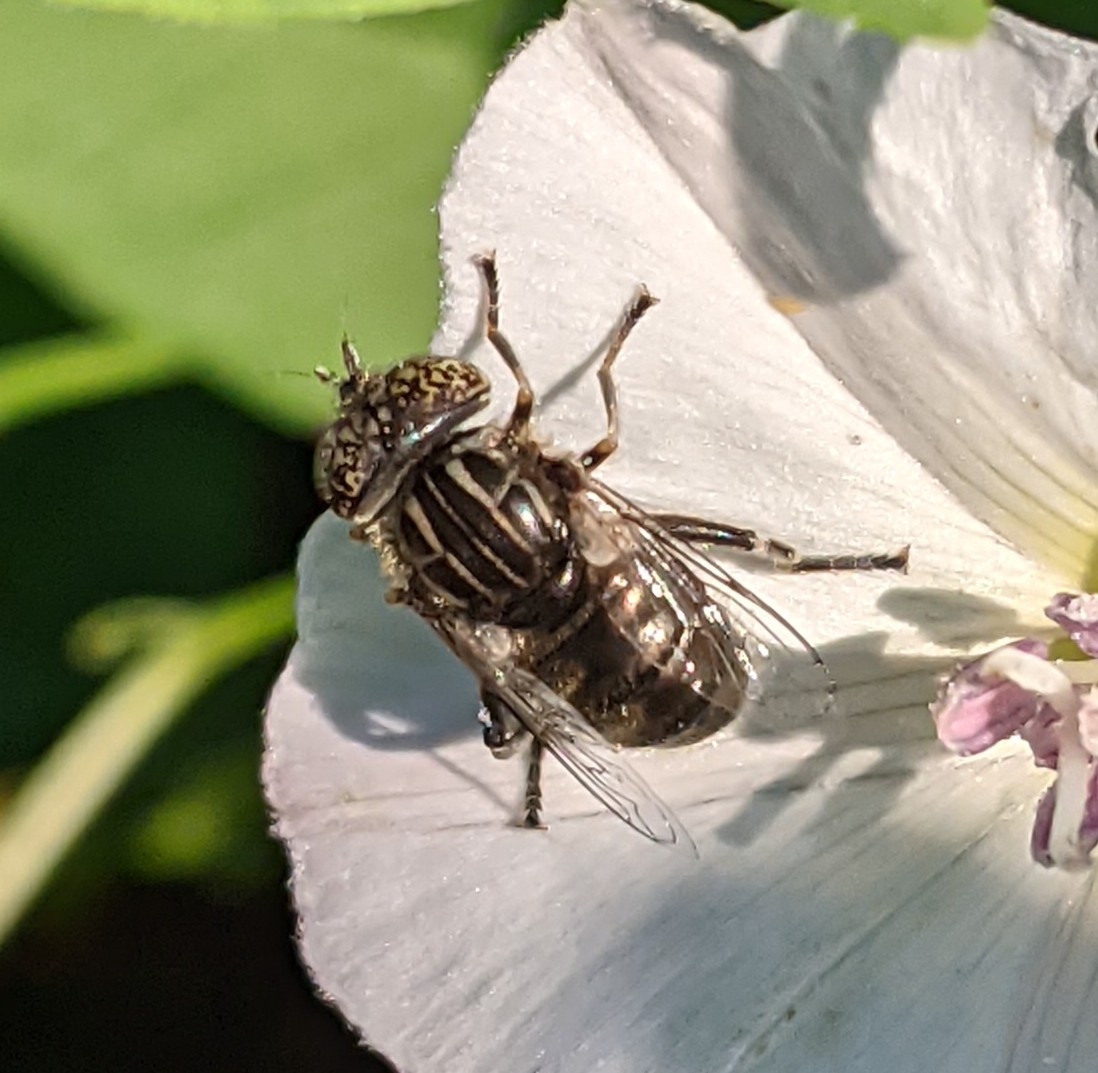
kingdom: Animalia
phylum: Arthropoda
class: Insecta
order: Diptera
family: Syrphidae
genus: Eristalinus
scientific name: Eristalinus sepulchralis
